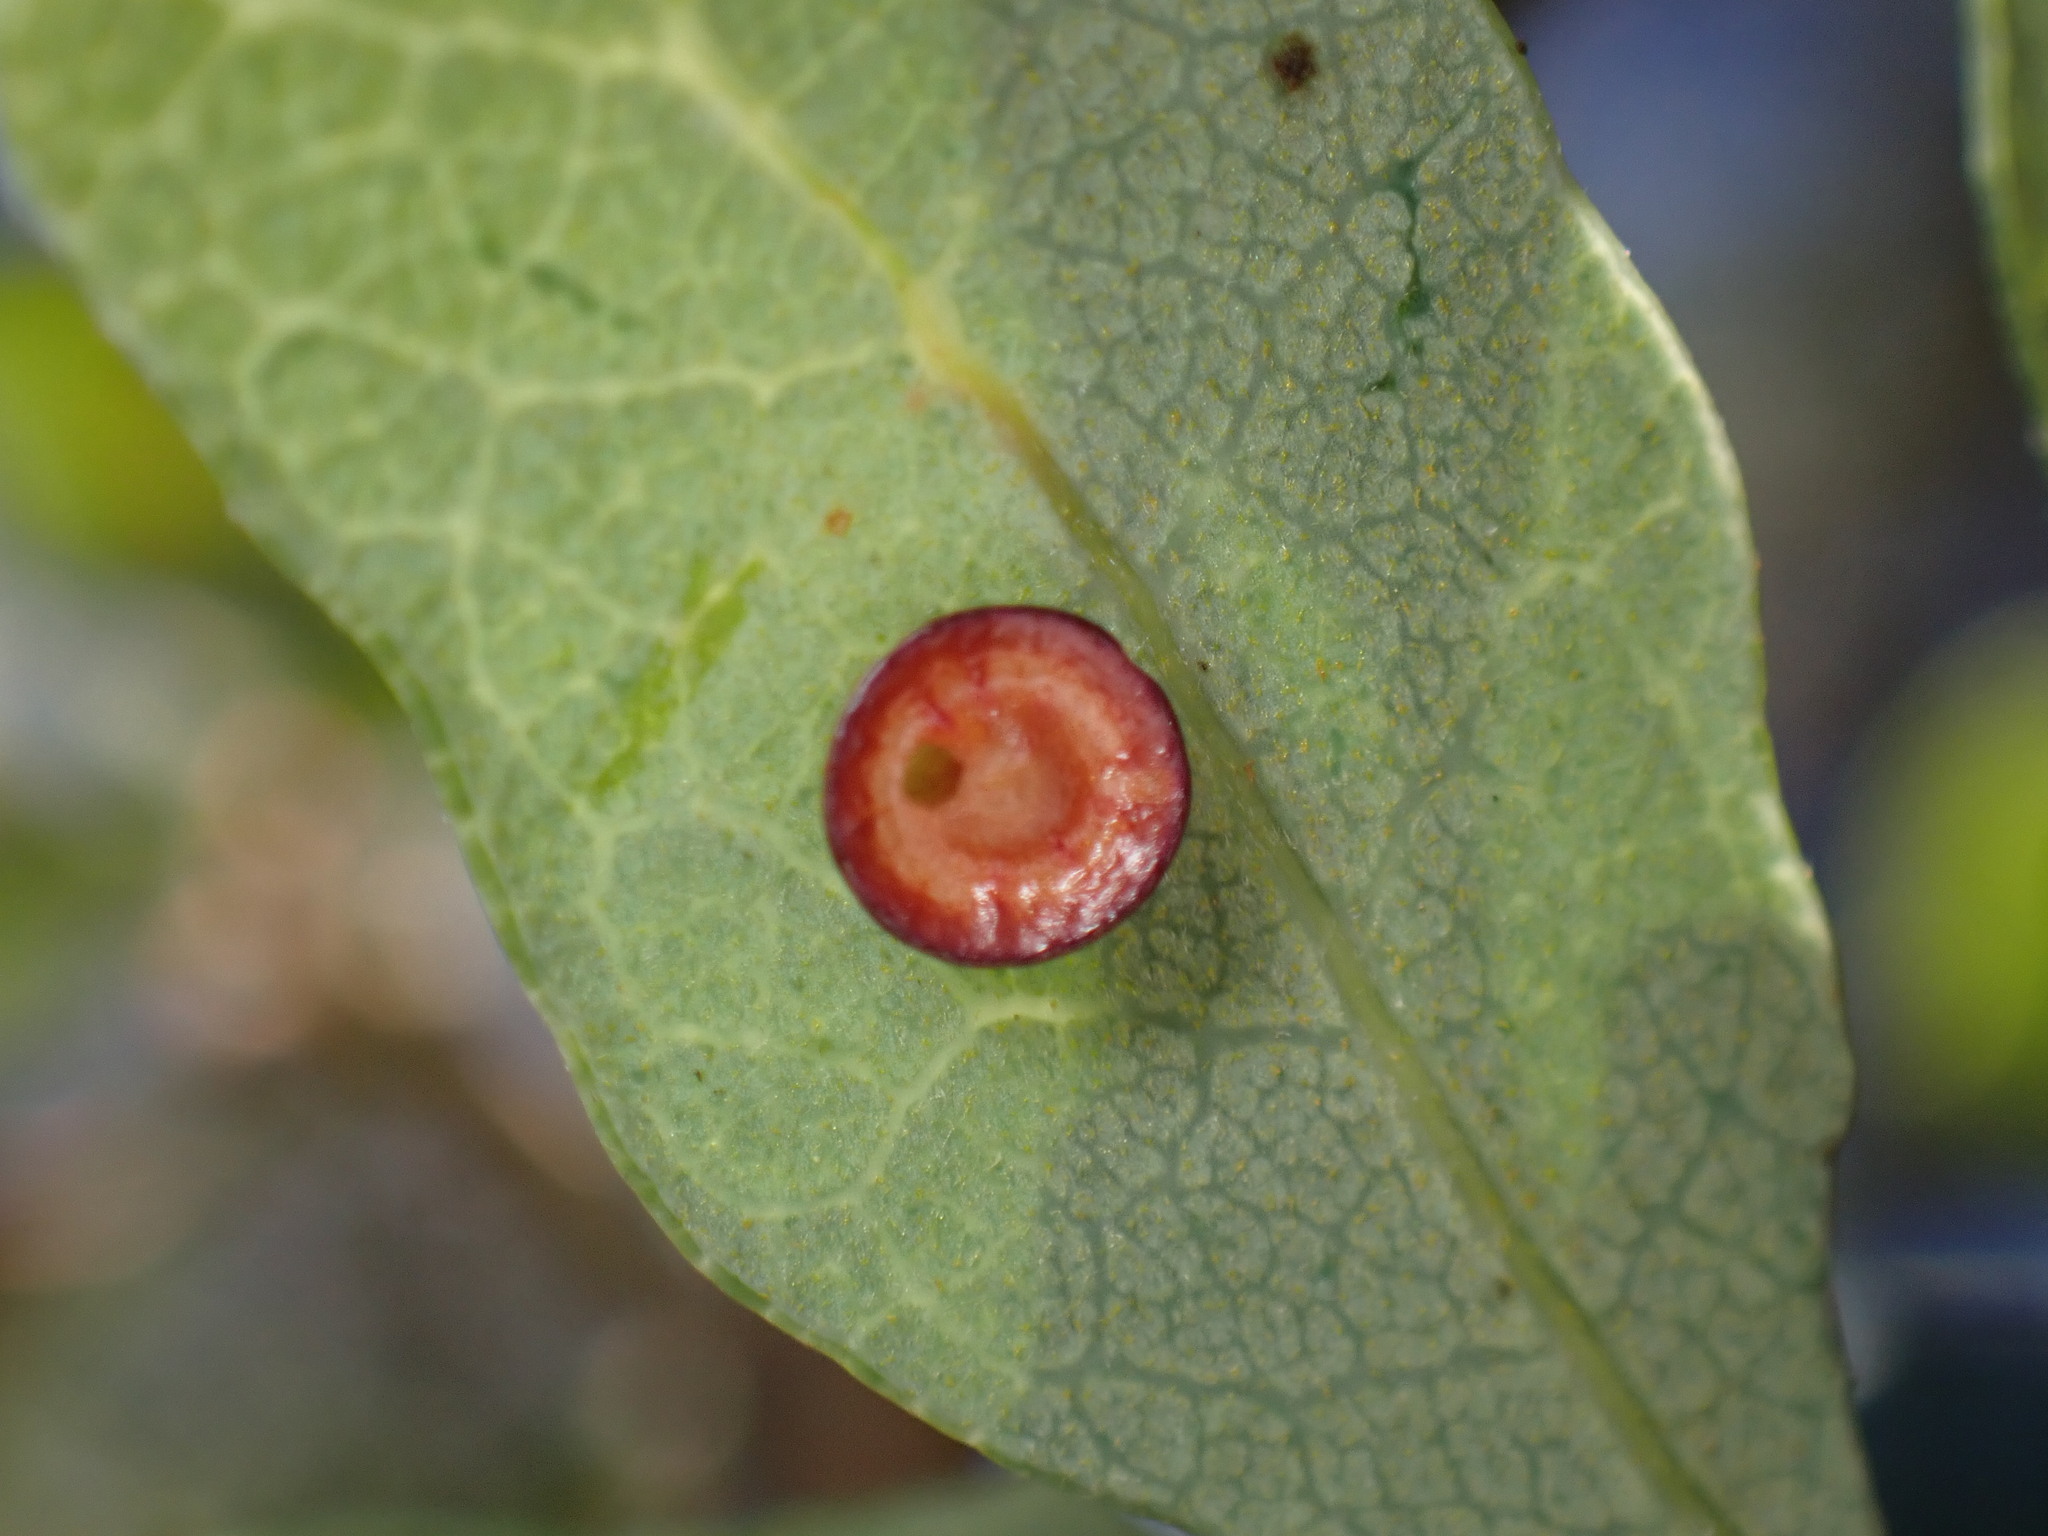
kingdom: Animalia
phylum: Arthropoda
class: Insecta
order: Hymenoptera
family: Cynipidae
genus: Andricus
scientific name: Andricus
